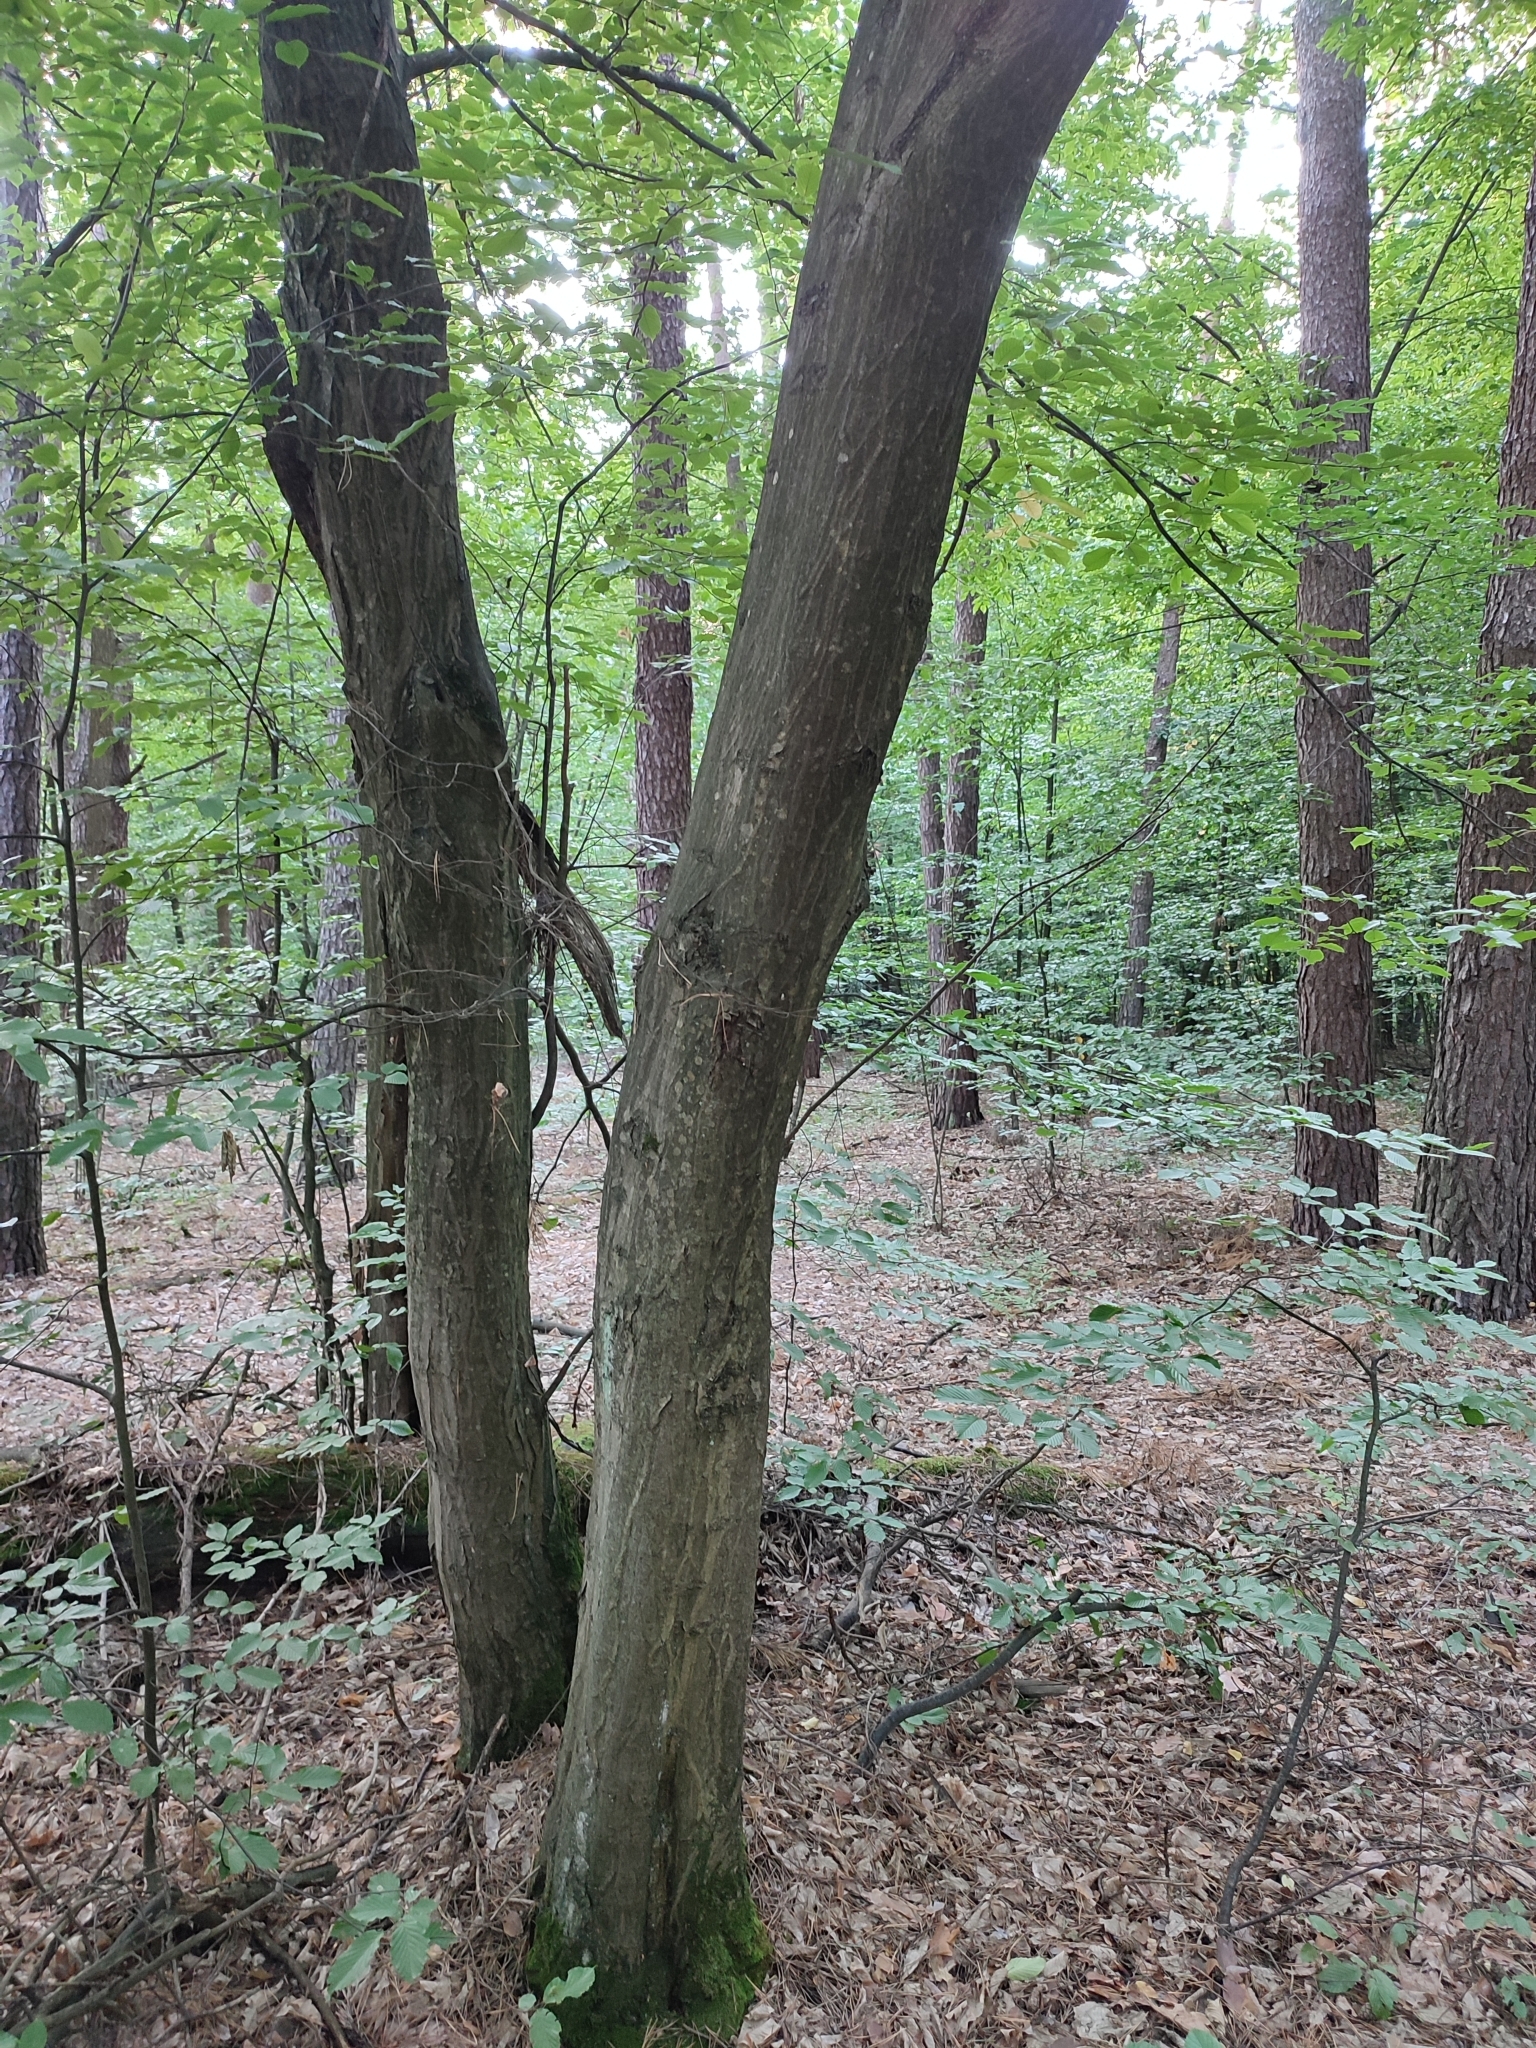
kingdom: Plantae
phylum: Tracheophyta
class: Magnoliopsida
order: Fagales
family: Betulaceae
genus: Carpinus
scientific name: Carpinus betulus
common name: Hornbeam
